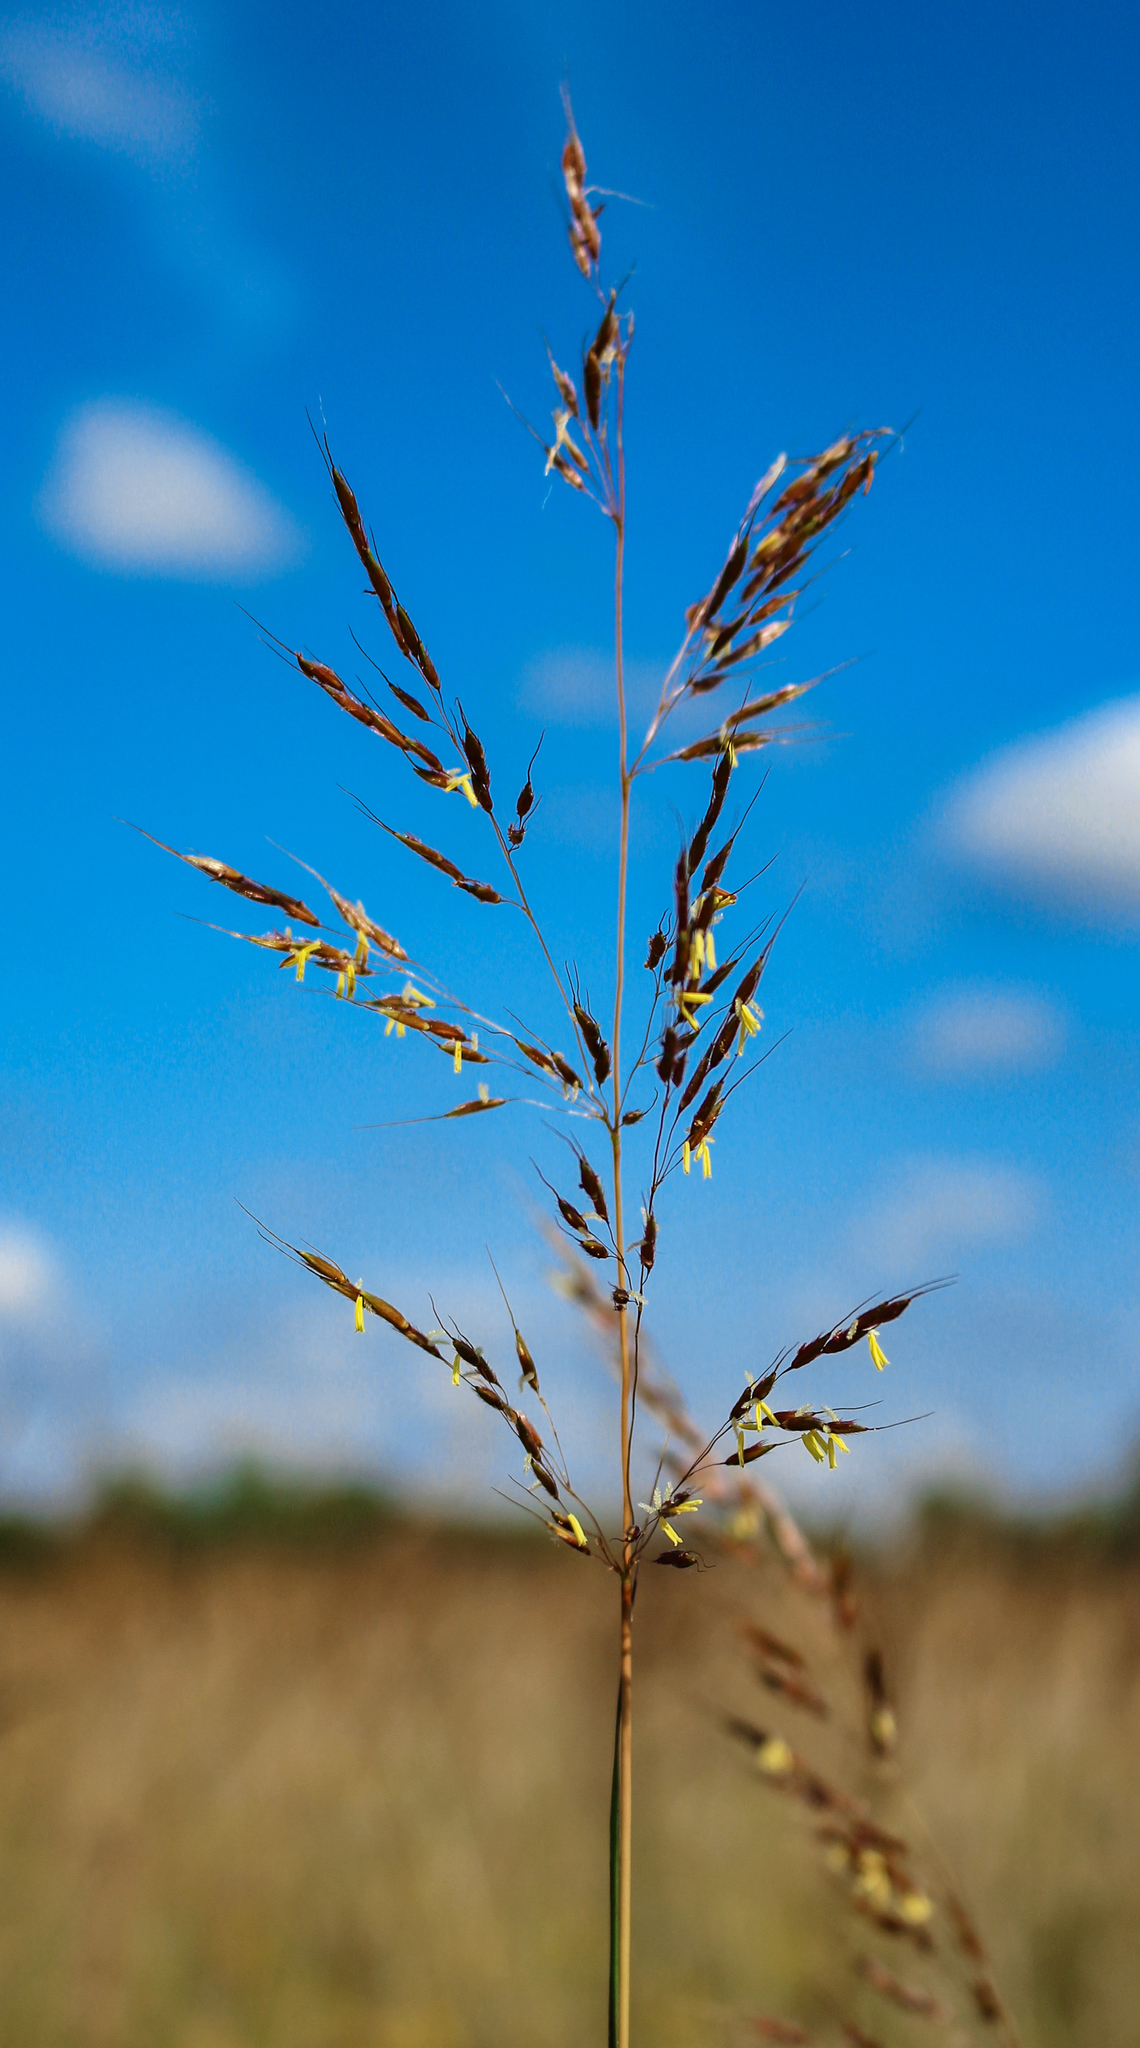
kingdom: Plantae
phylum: Tracheophyta
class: Liliopsida
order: Poales
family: Poaceae
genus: Sorghastrum
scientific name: Sorghastrum nutans
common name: Indian grass
